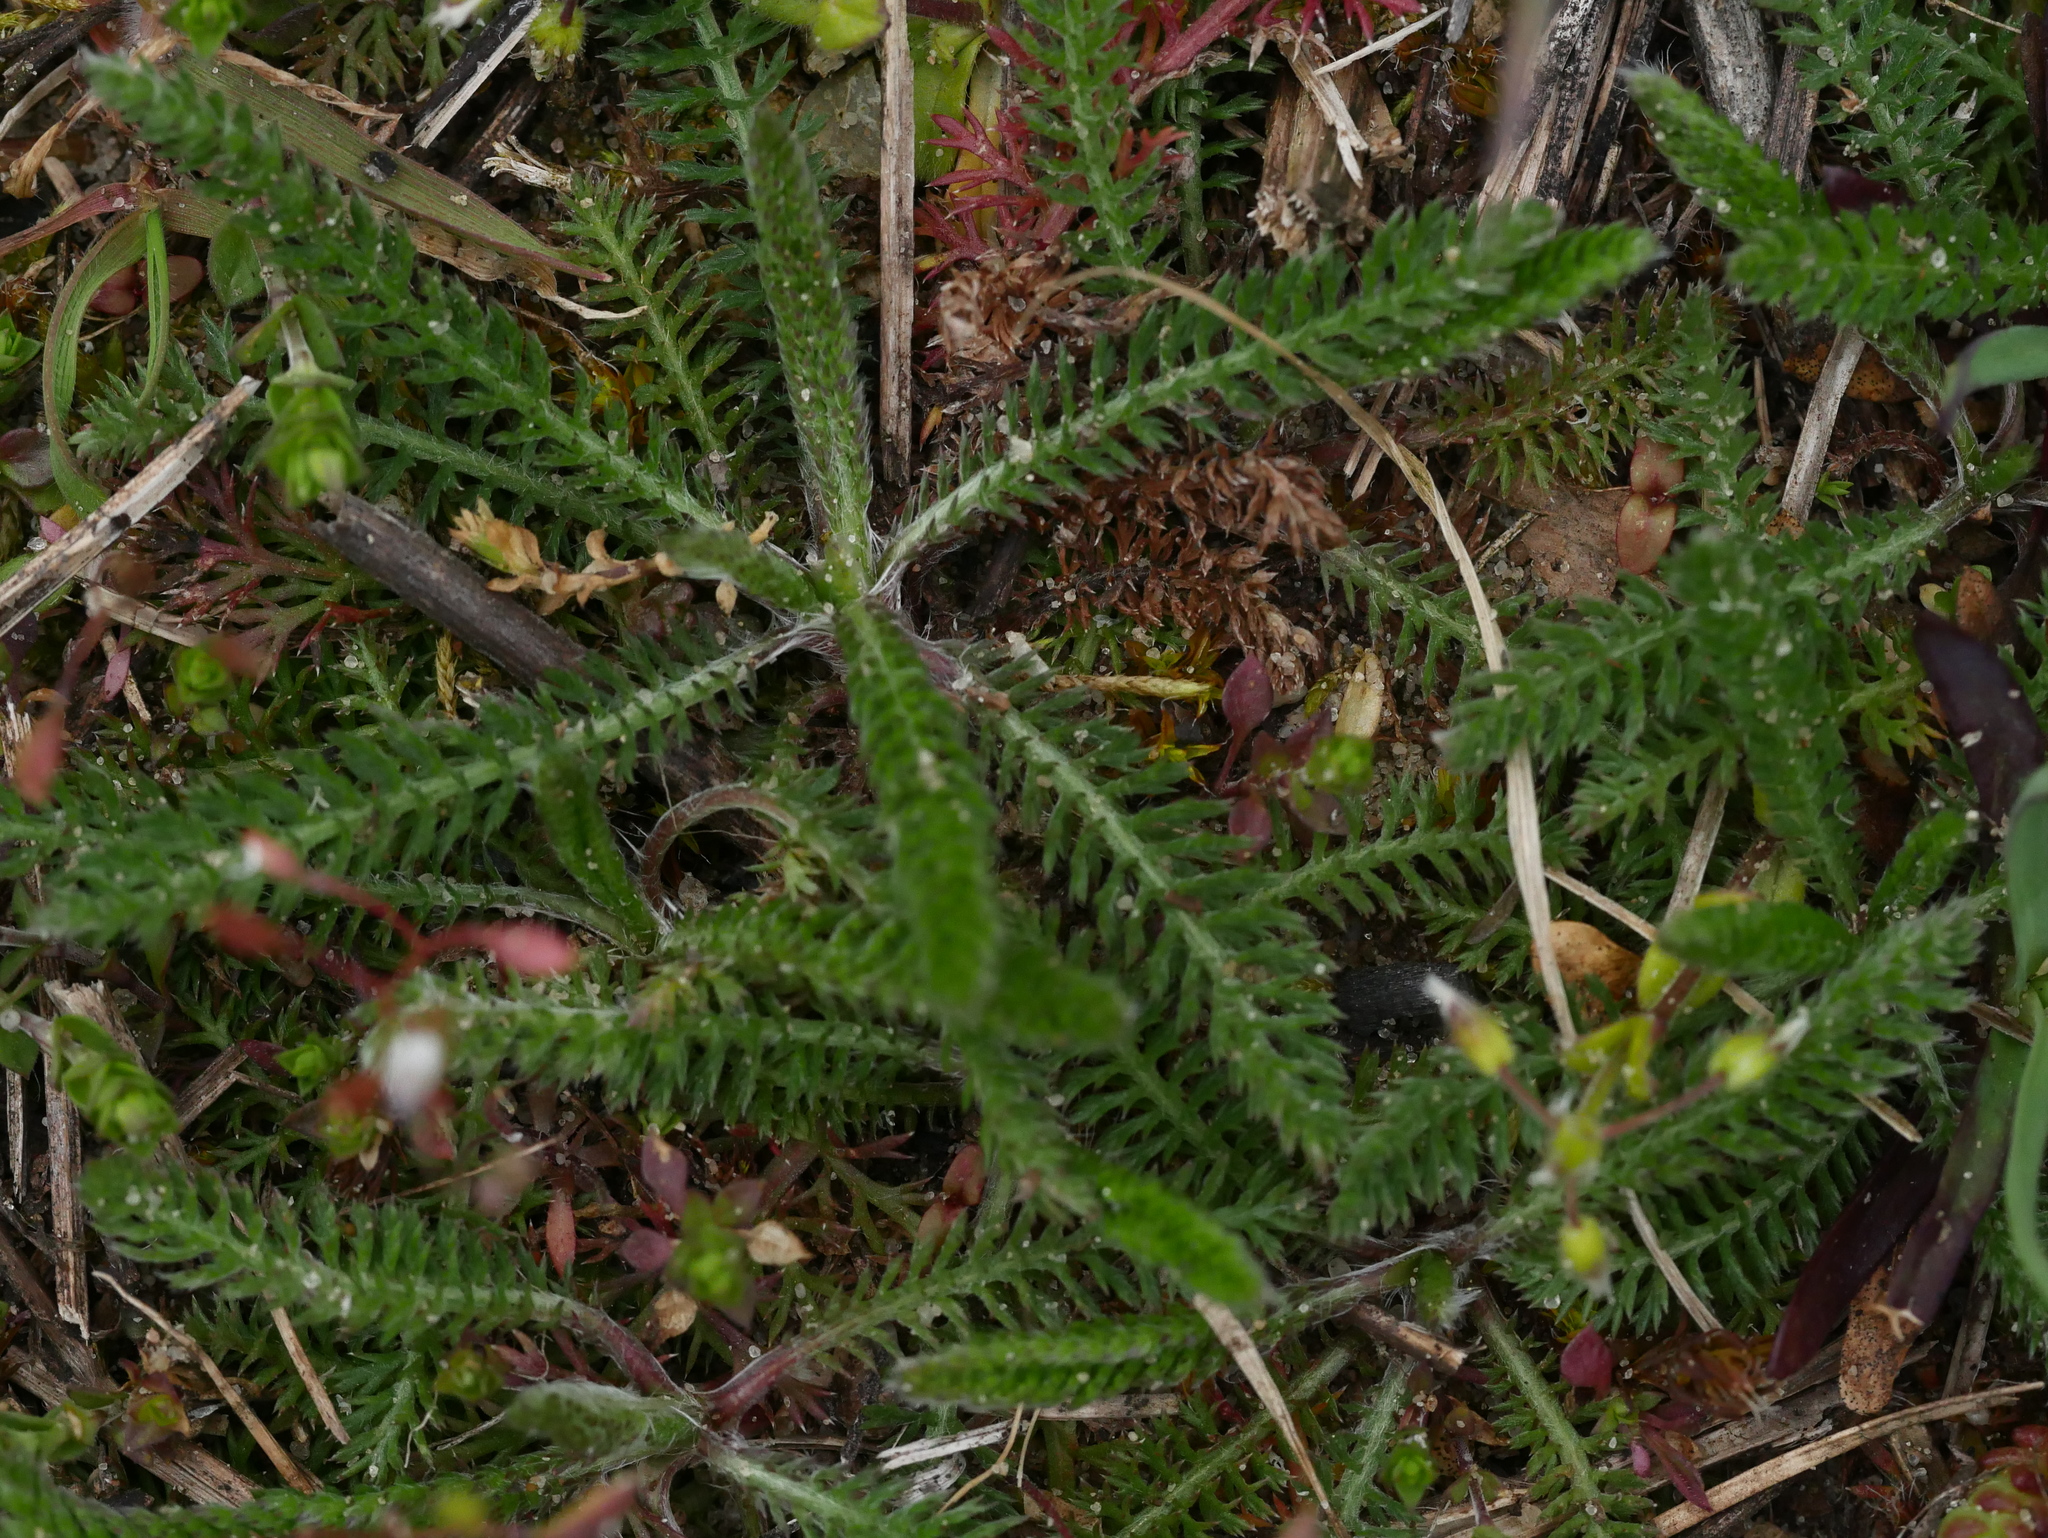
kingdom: Plantae
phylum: Tracheophyta
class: Magnoliopsida
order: Asterales
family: Asteraceae
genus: Achillea
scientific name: Achillea millefolium
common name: Yarrow
